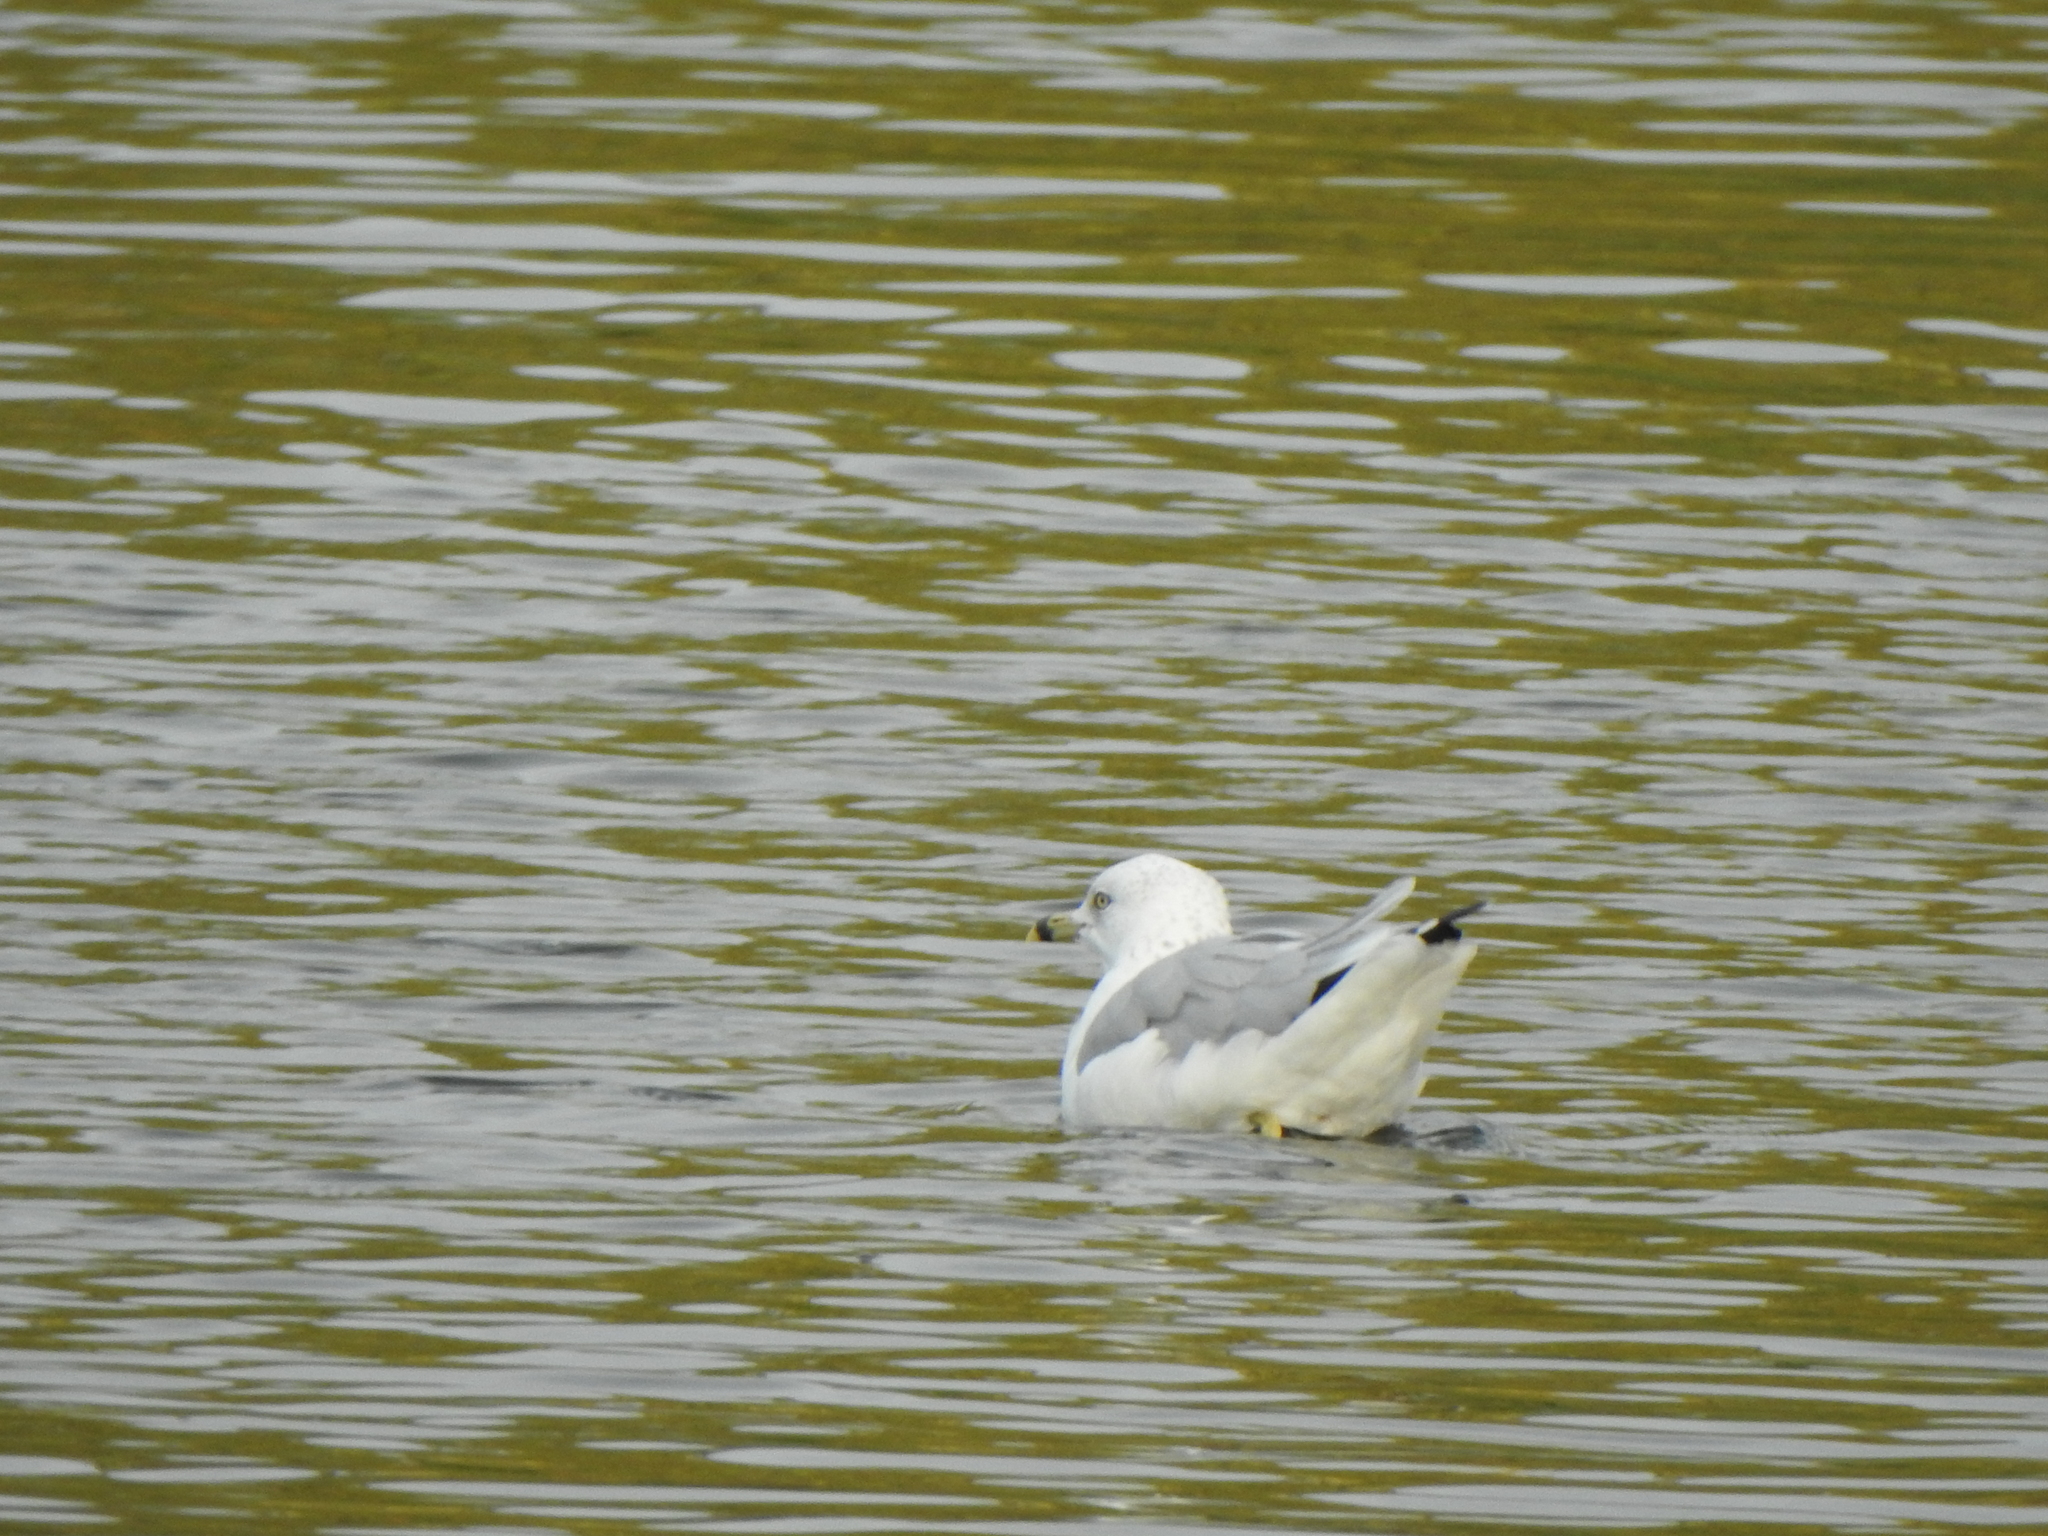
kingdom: Animalia
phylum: Chordata
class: Aves
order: Charadriiformes
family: Laridae
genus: Larus
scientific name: Larus delawarensis
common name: Ring-billed gull
